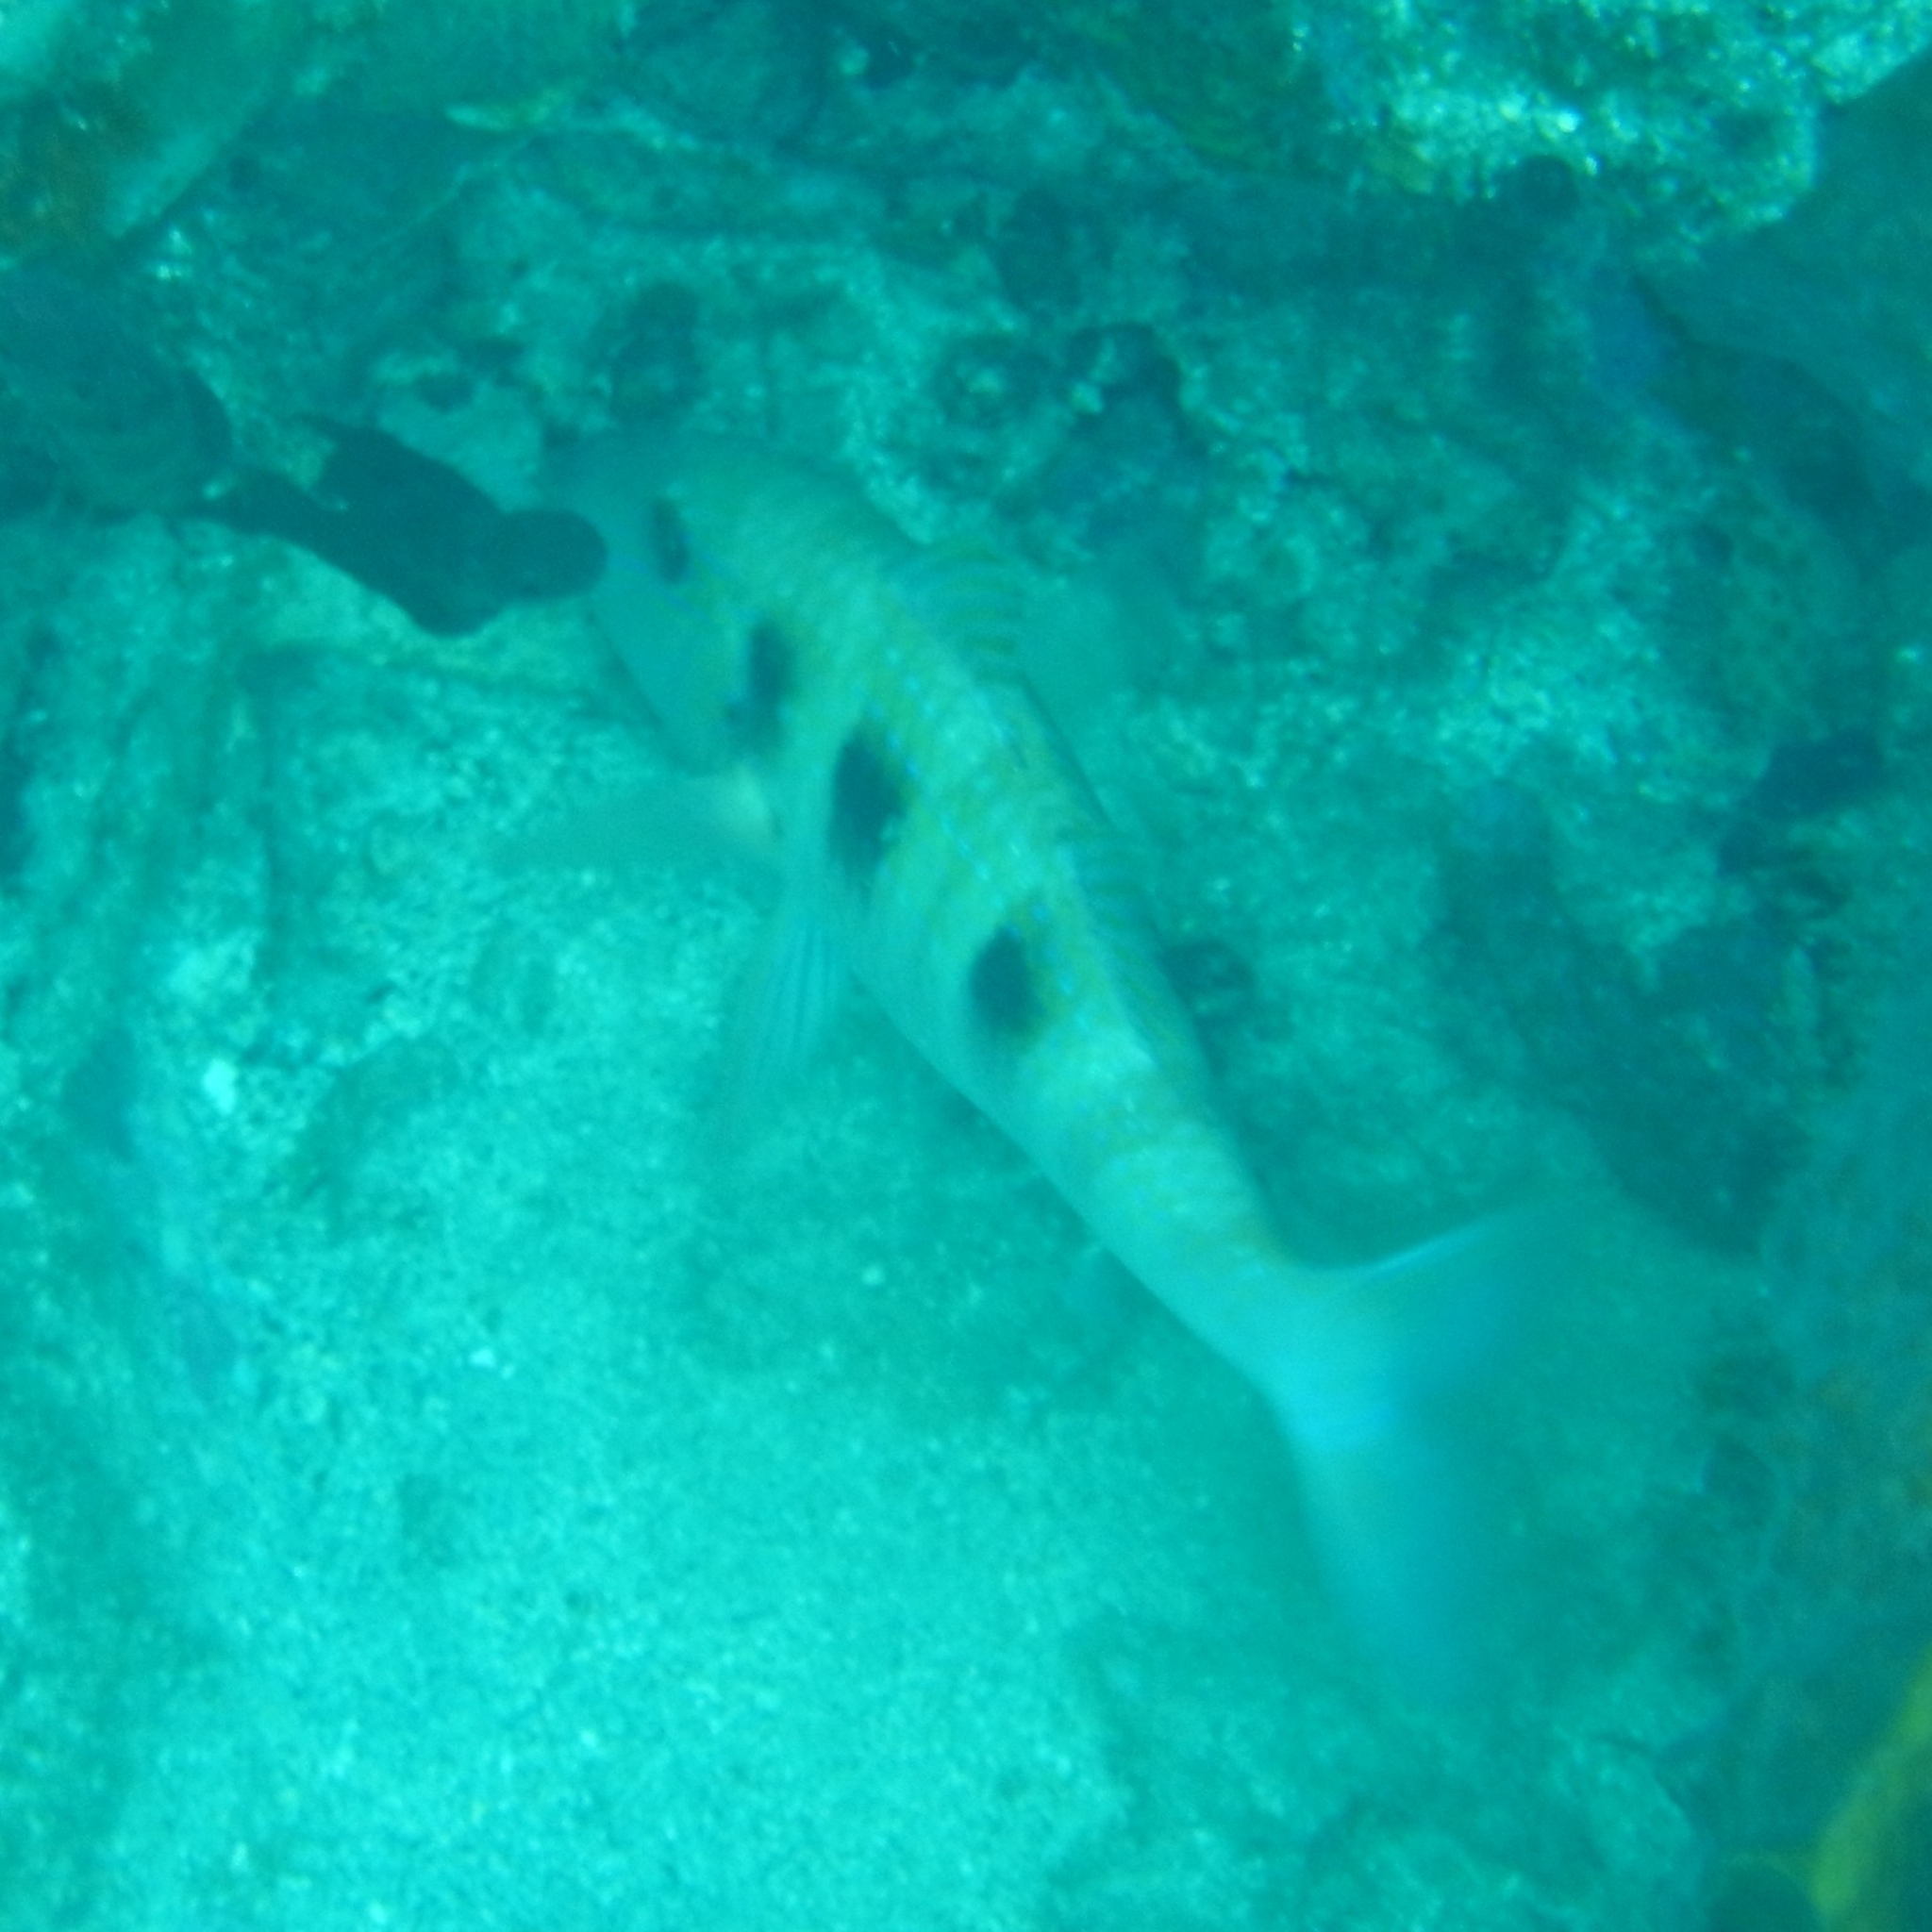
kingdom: Animalia
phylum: Chordata
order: Perciformes
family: Mullidae
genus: Pseudupeneus
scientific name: Pseudupeneus maculatus
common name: Spotted goatfish
